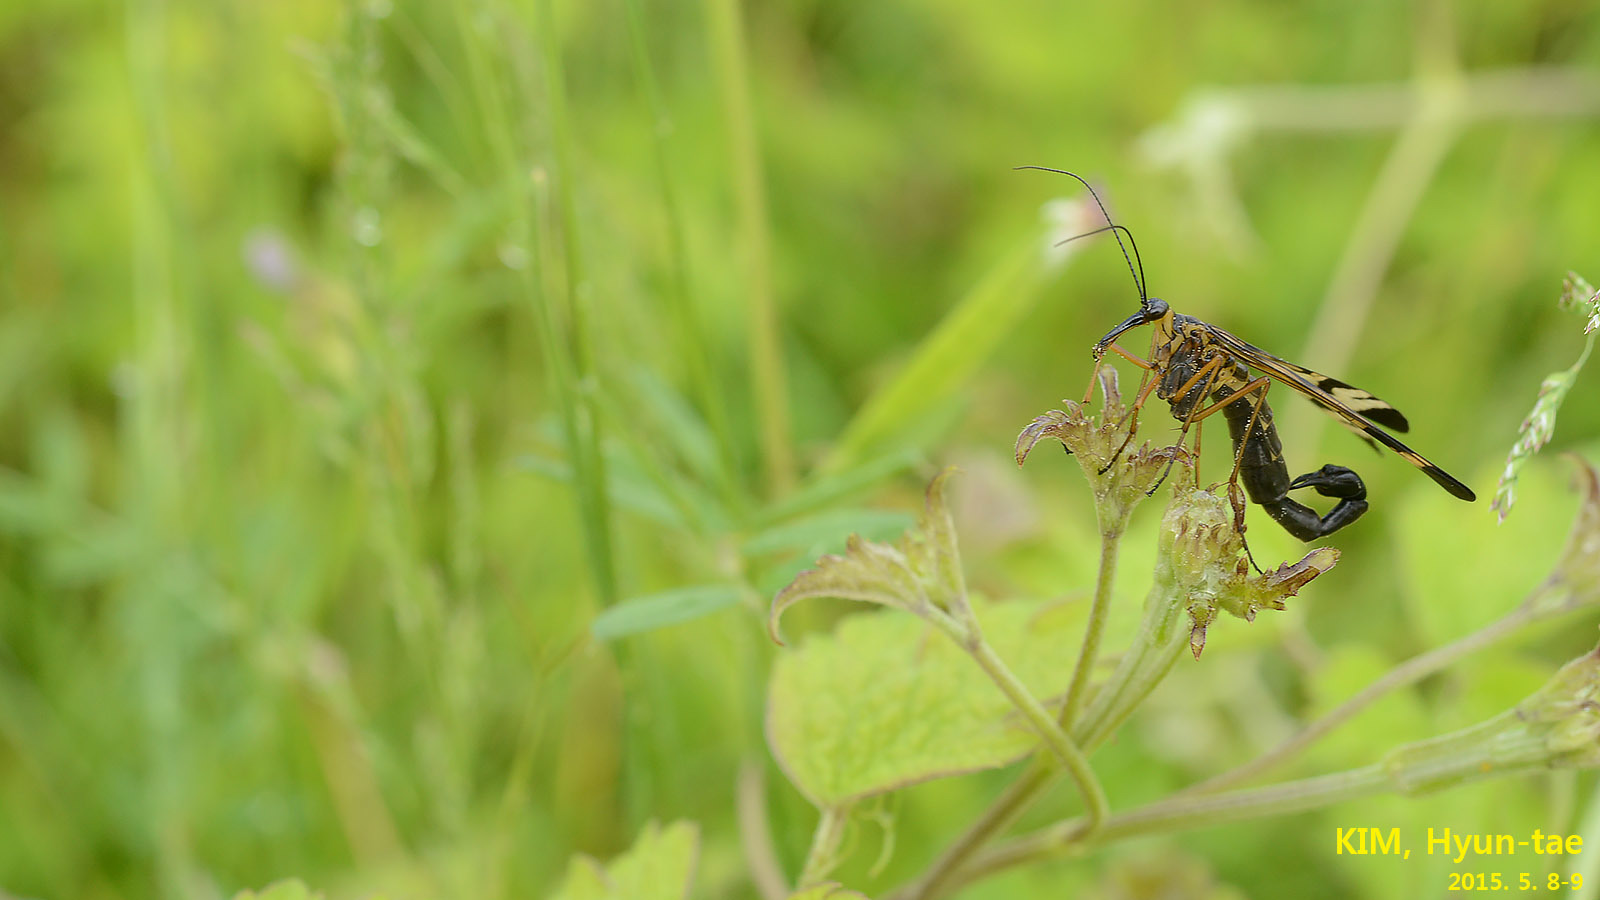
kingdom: Animalia
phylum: Arthropoda
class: Insecta
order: Mecoptera
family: Panorpidae
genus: Panorpa
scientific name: Panorpa coreana
